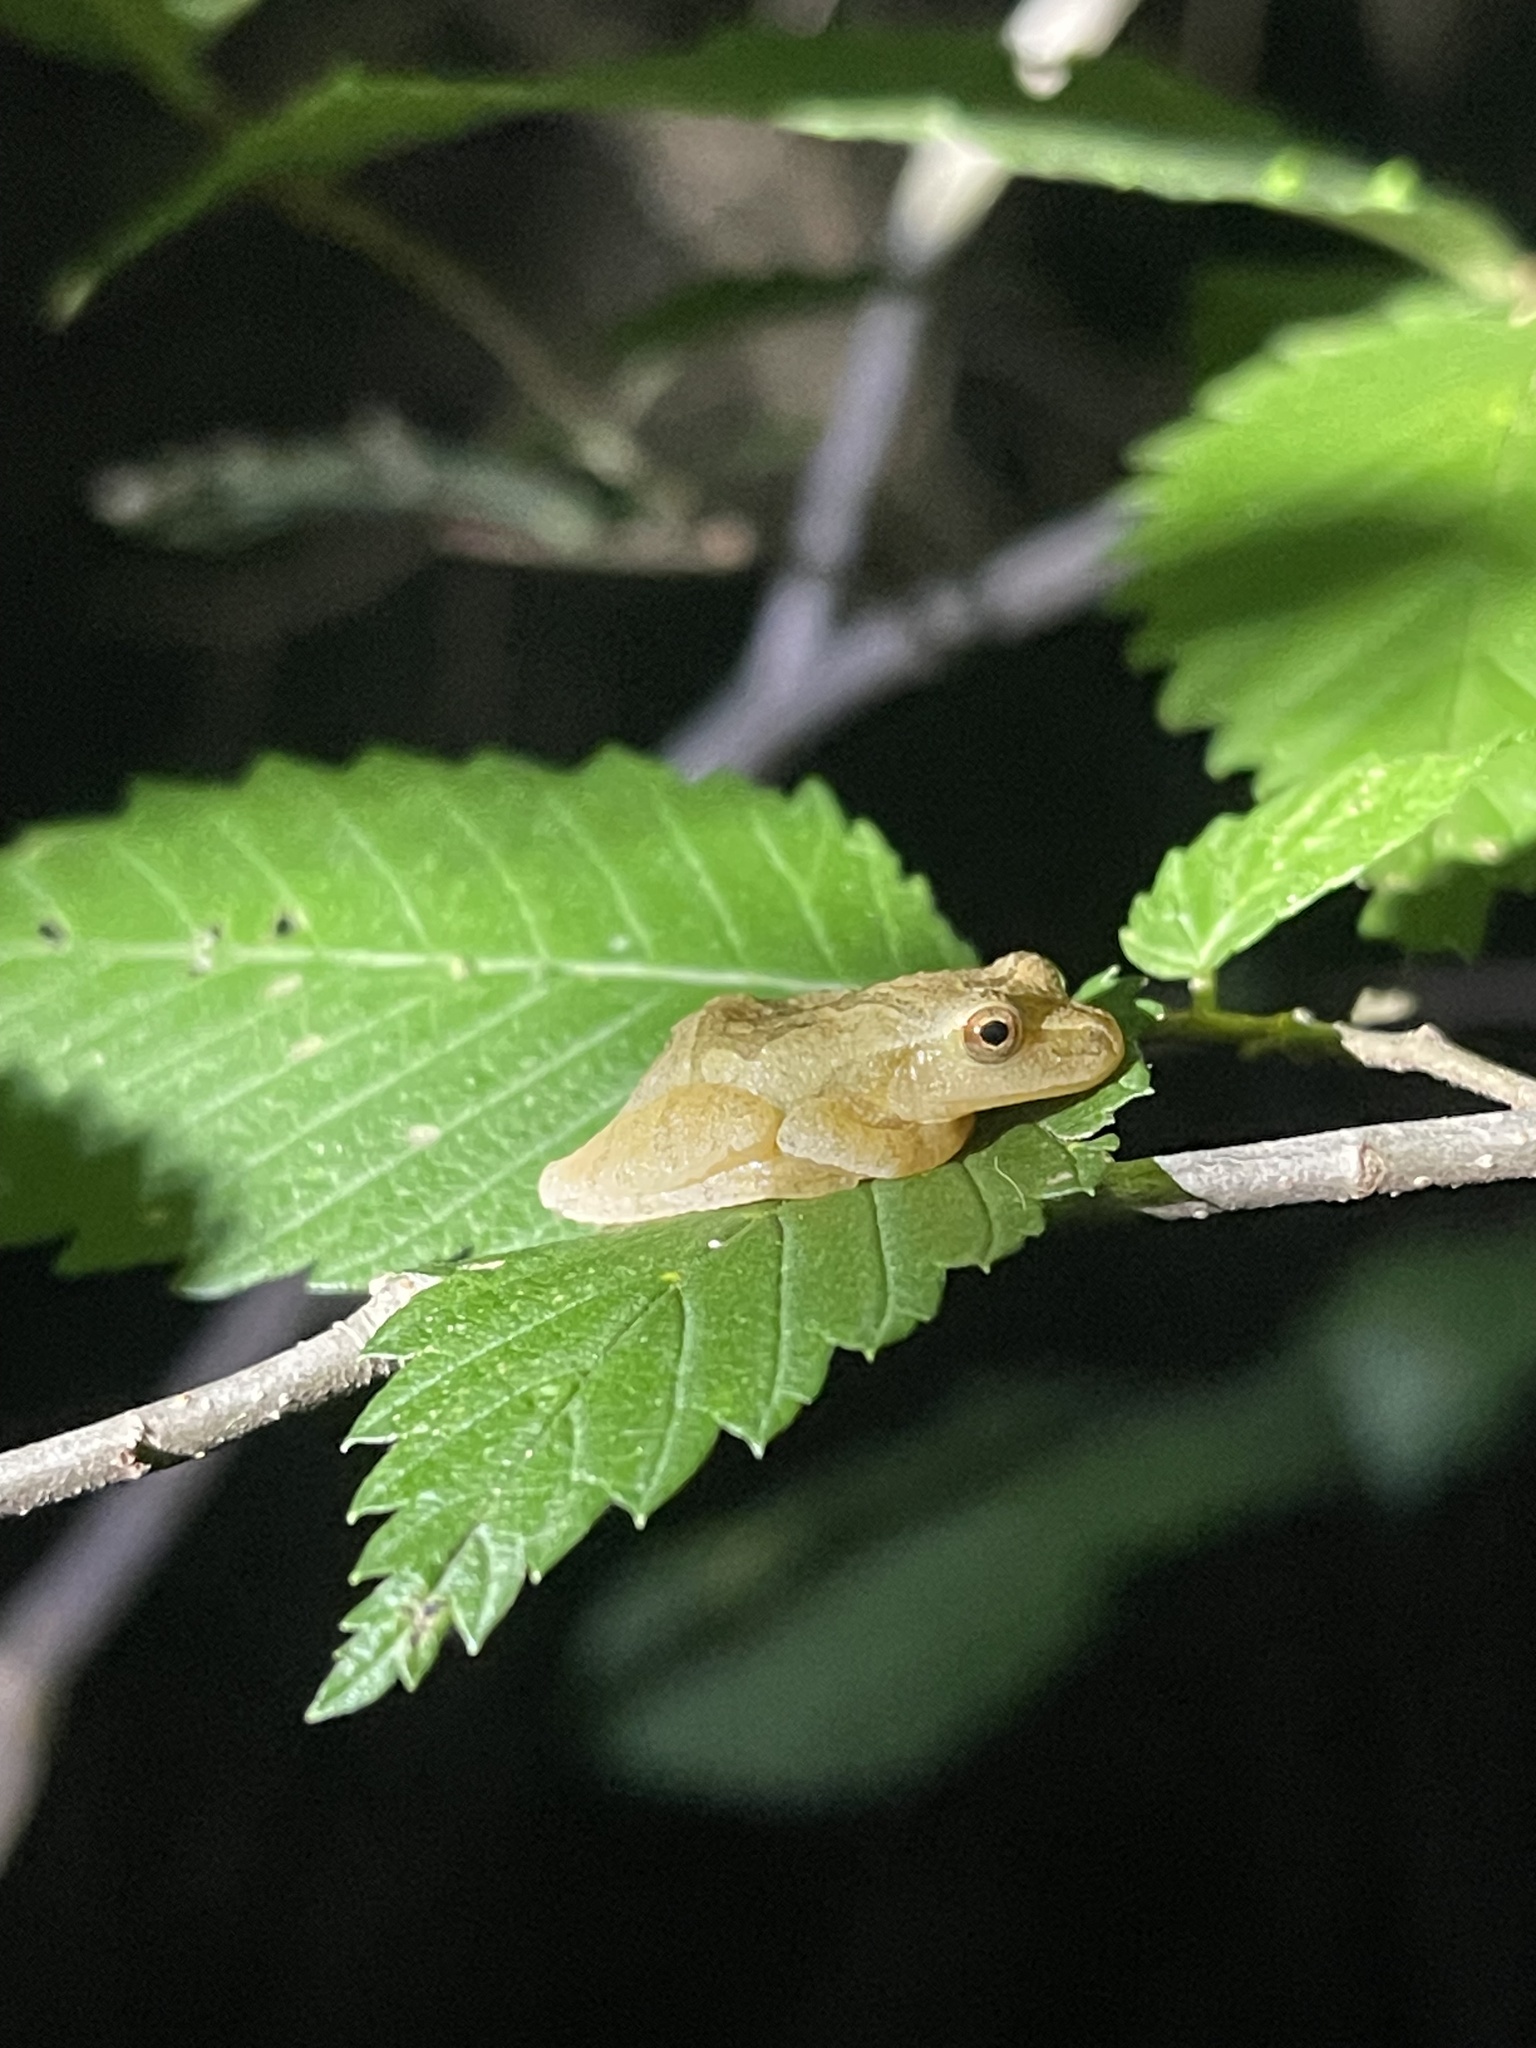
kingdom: Animalia
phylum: Chordata
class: Amphibia
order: Anura
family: Hylidae
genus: Pseudacris
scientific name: Pseudacris crucifer
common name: Spring peeper
